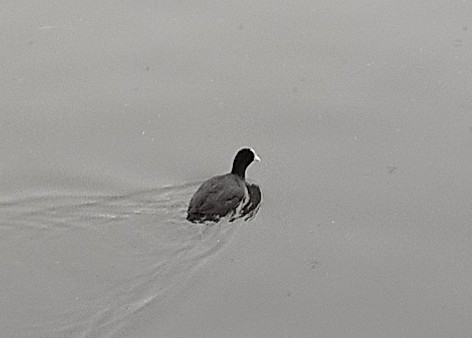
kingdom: Animalia
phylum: Chordata
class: Aves
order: Gruiformes
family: Rallidae
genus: Fulica
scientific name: Fulica atra
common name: Eurasian coot
